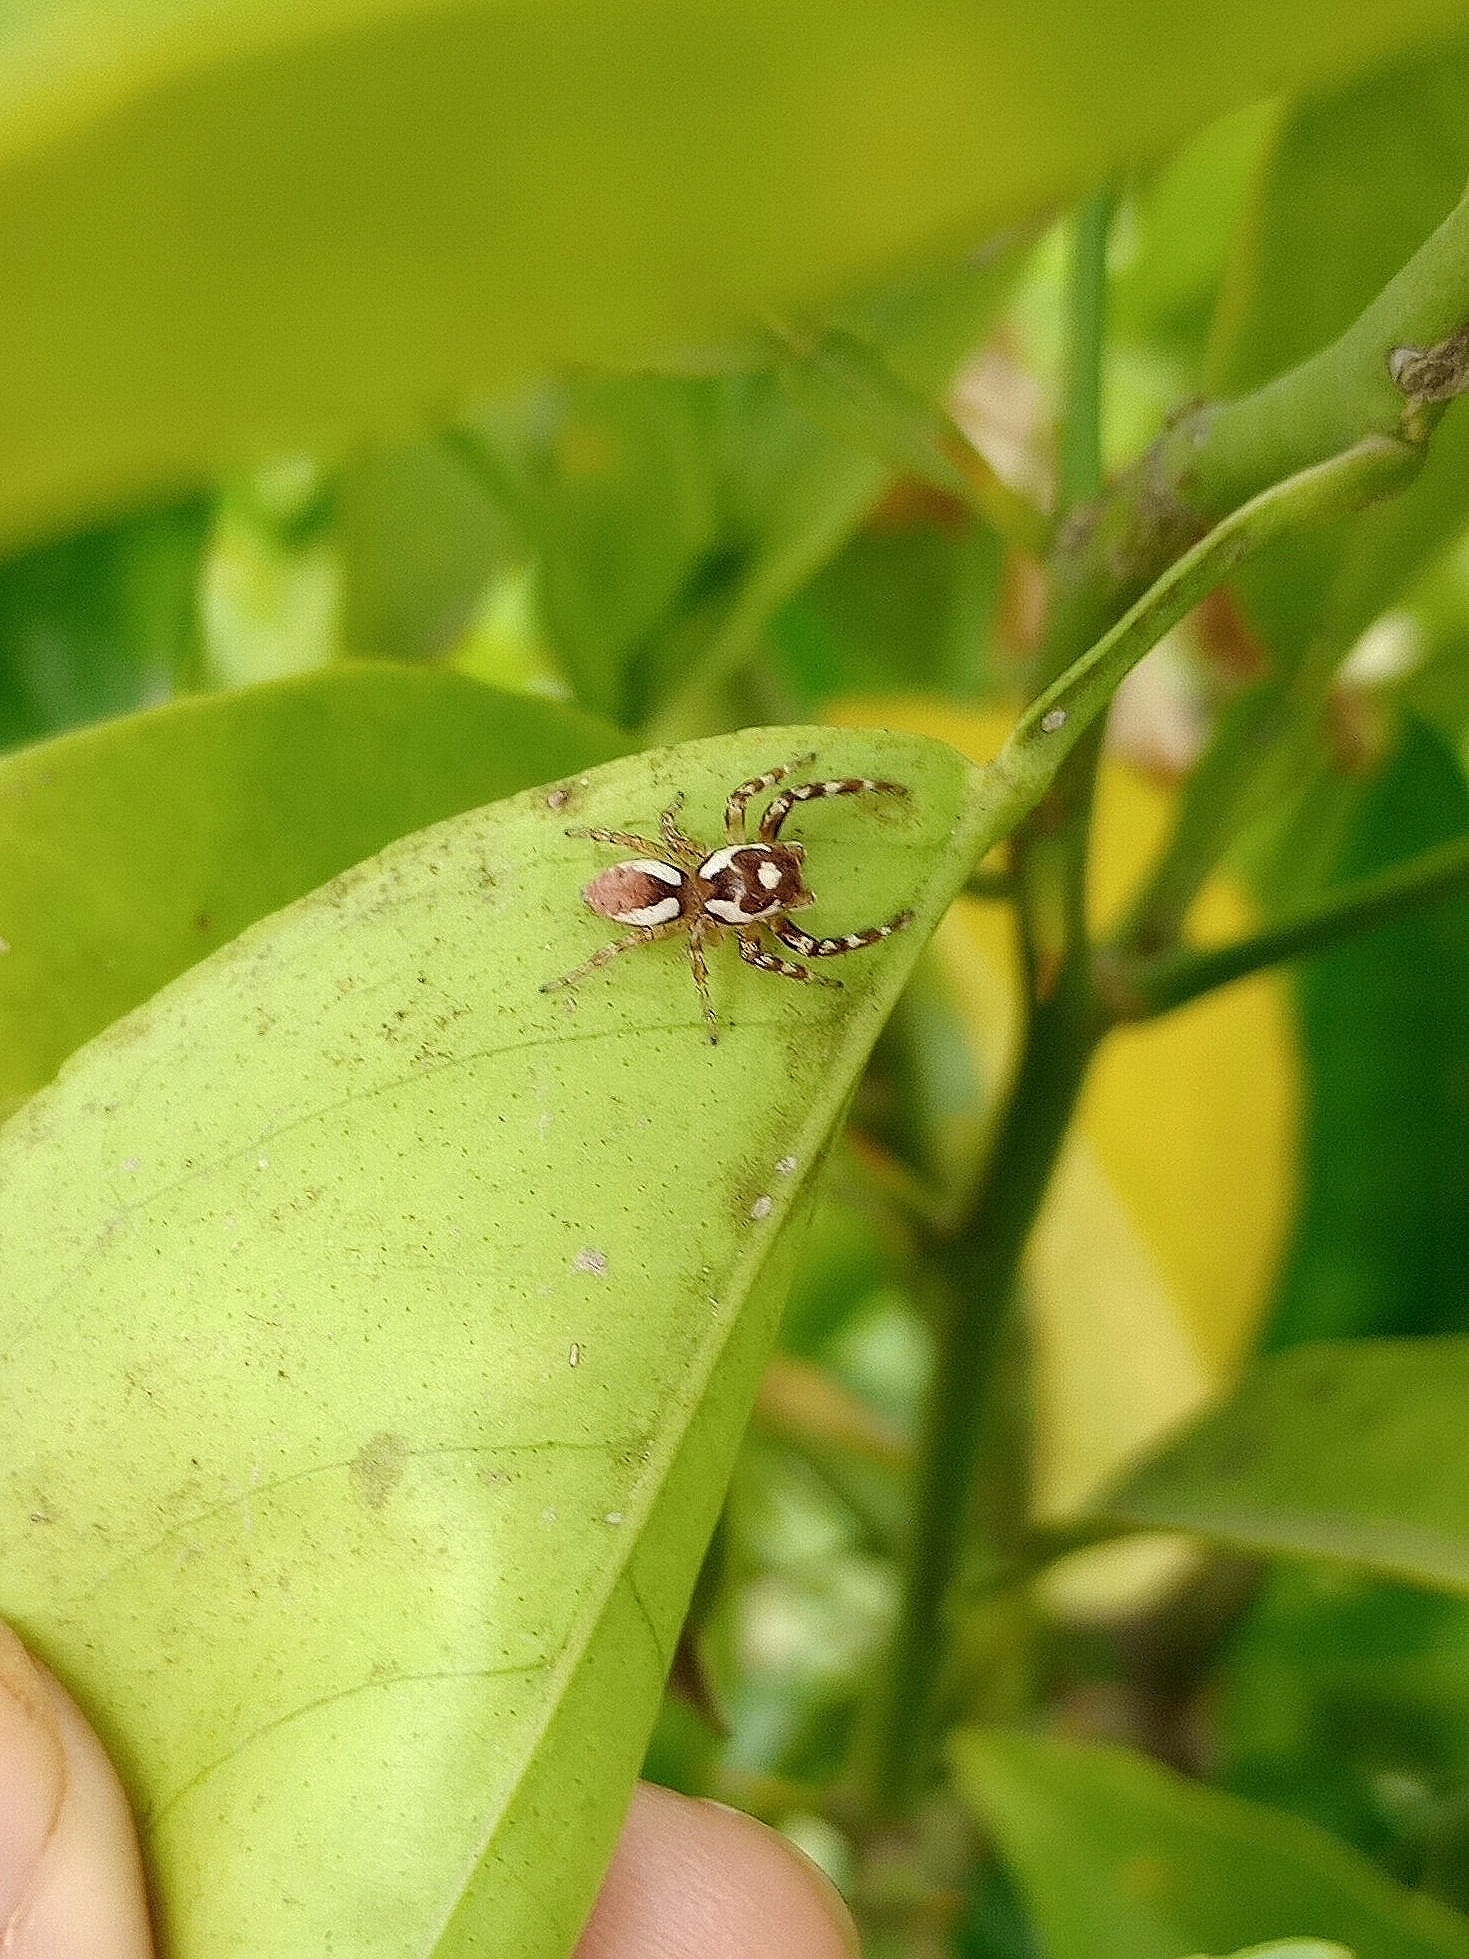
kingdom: Animalia
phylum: Arthropoda
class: Arachnida
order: Araneae
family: Salticidae
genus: Chira
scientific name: Chira gounellei
